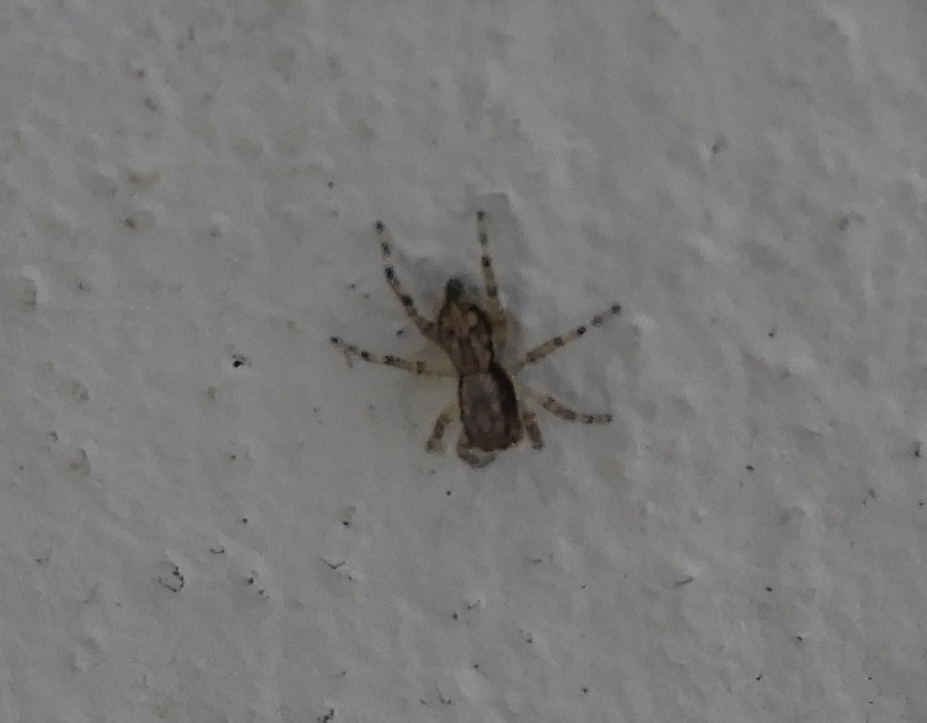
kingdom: Animalia
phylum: Arthropoda
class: Arachnida
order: Araneae
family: Salticidae
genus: Menemerus
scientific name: Menemerus bivittatus
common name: Gray wall jumper
